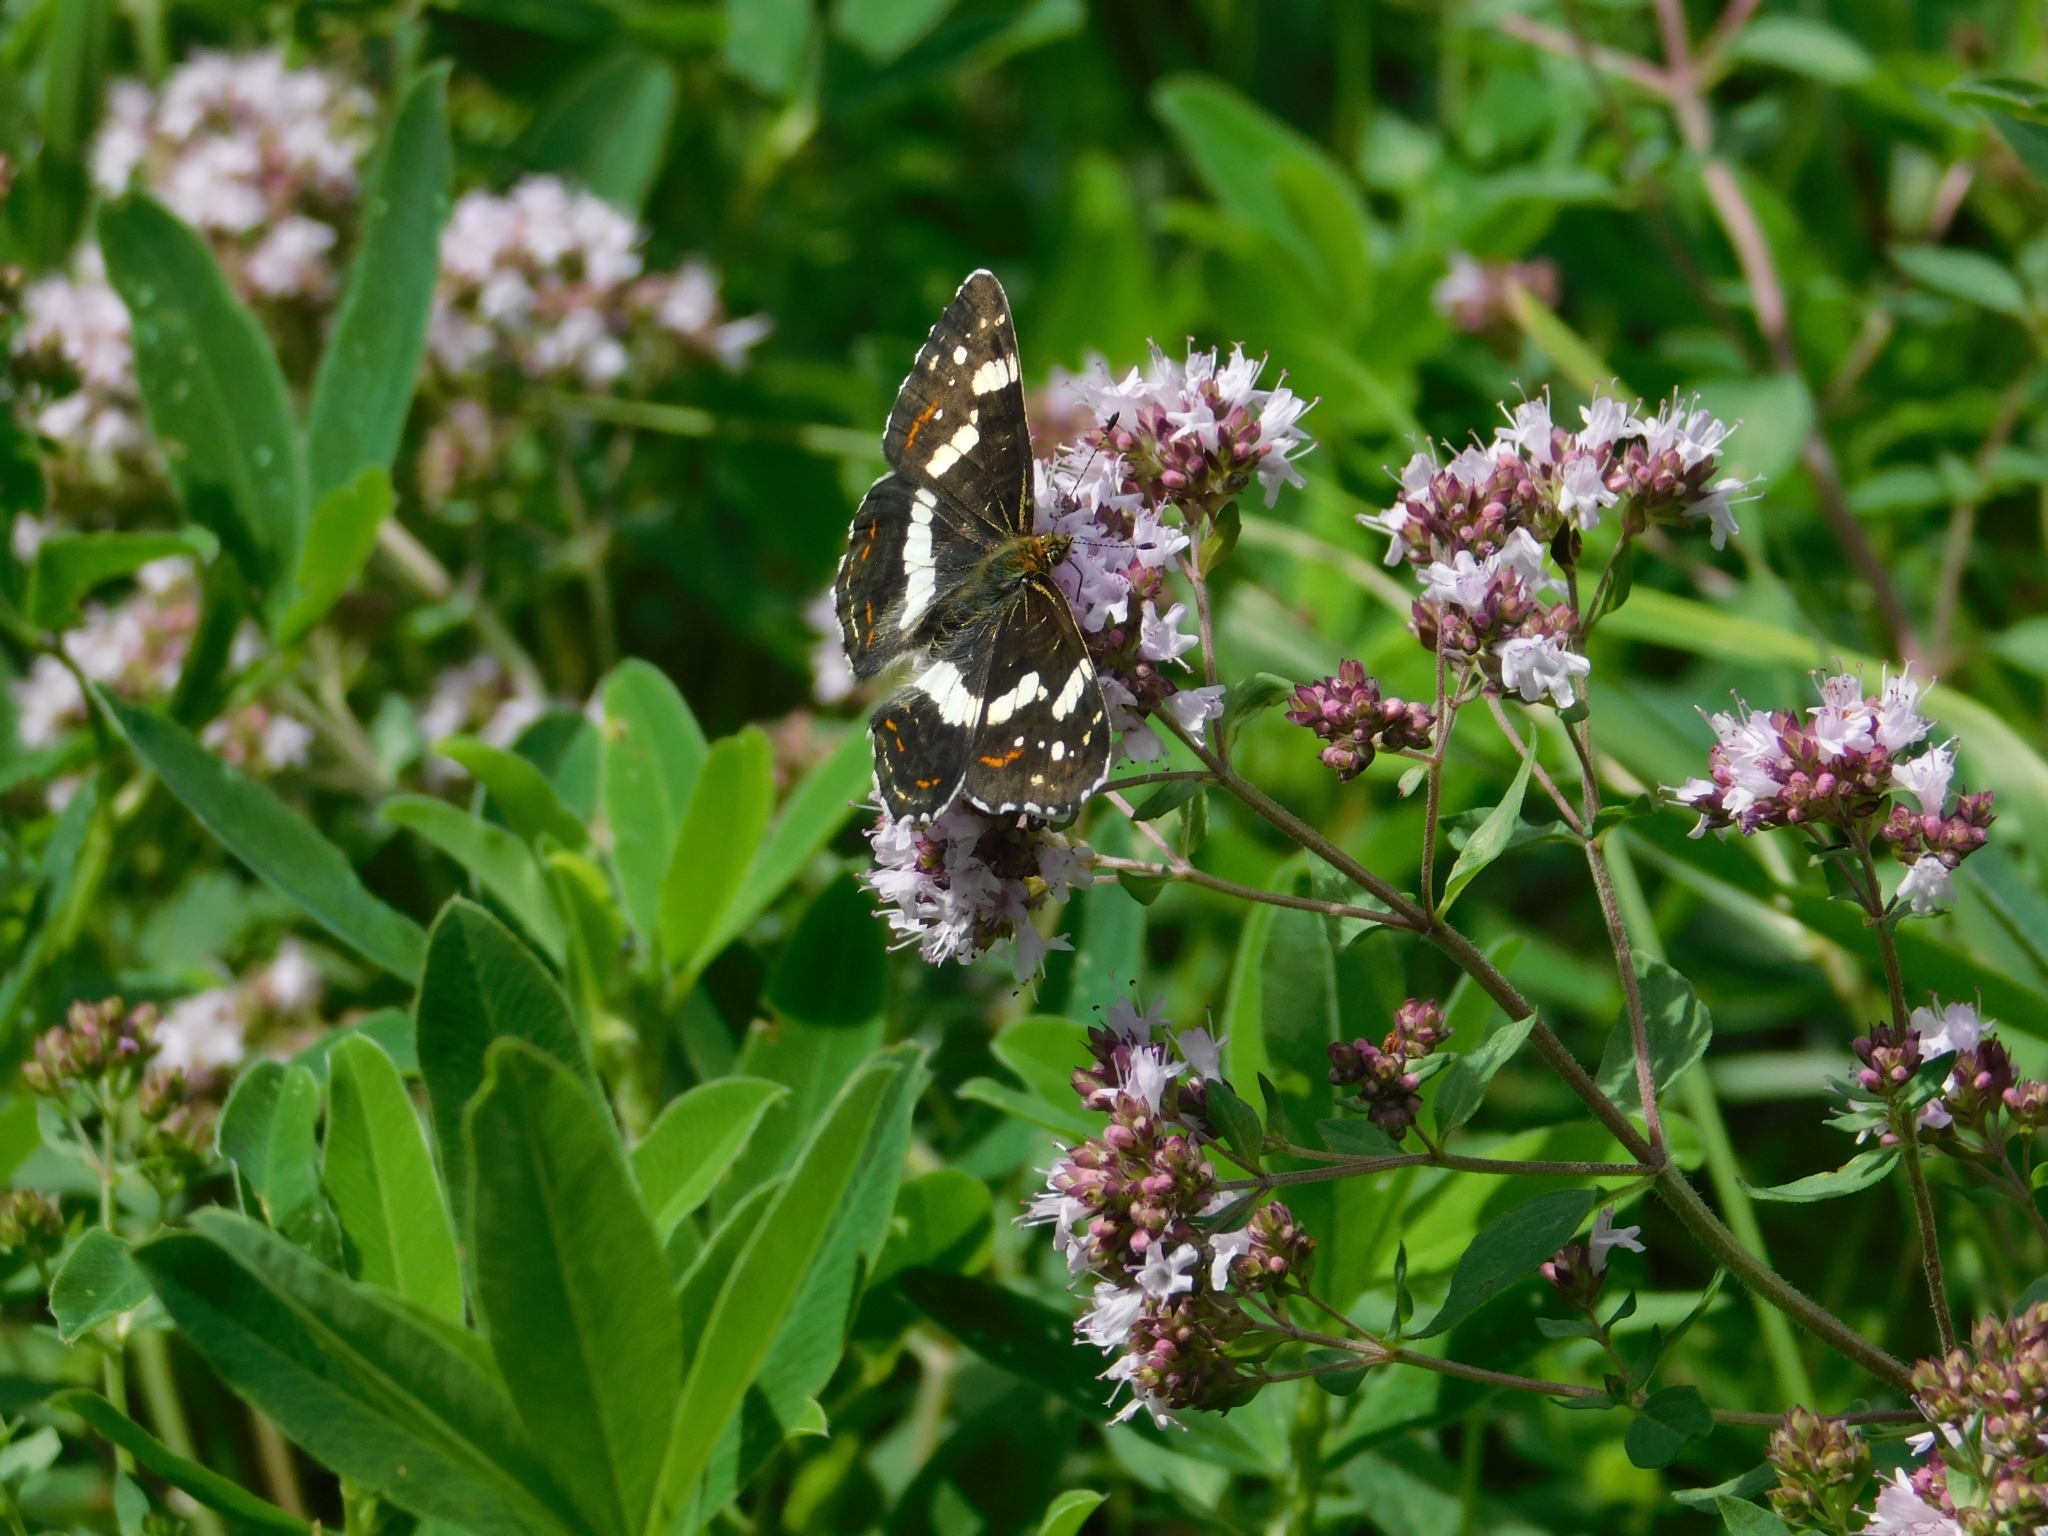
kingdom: Animalia
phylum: Arthropoda
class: Insecta
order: Lepidoptera
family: Nymphalidae
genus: Araschnia
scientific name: Araschnia levana
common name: Map butterfly
